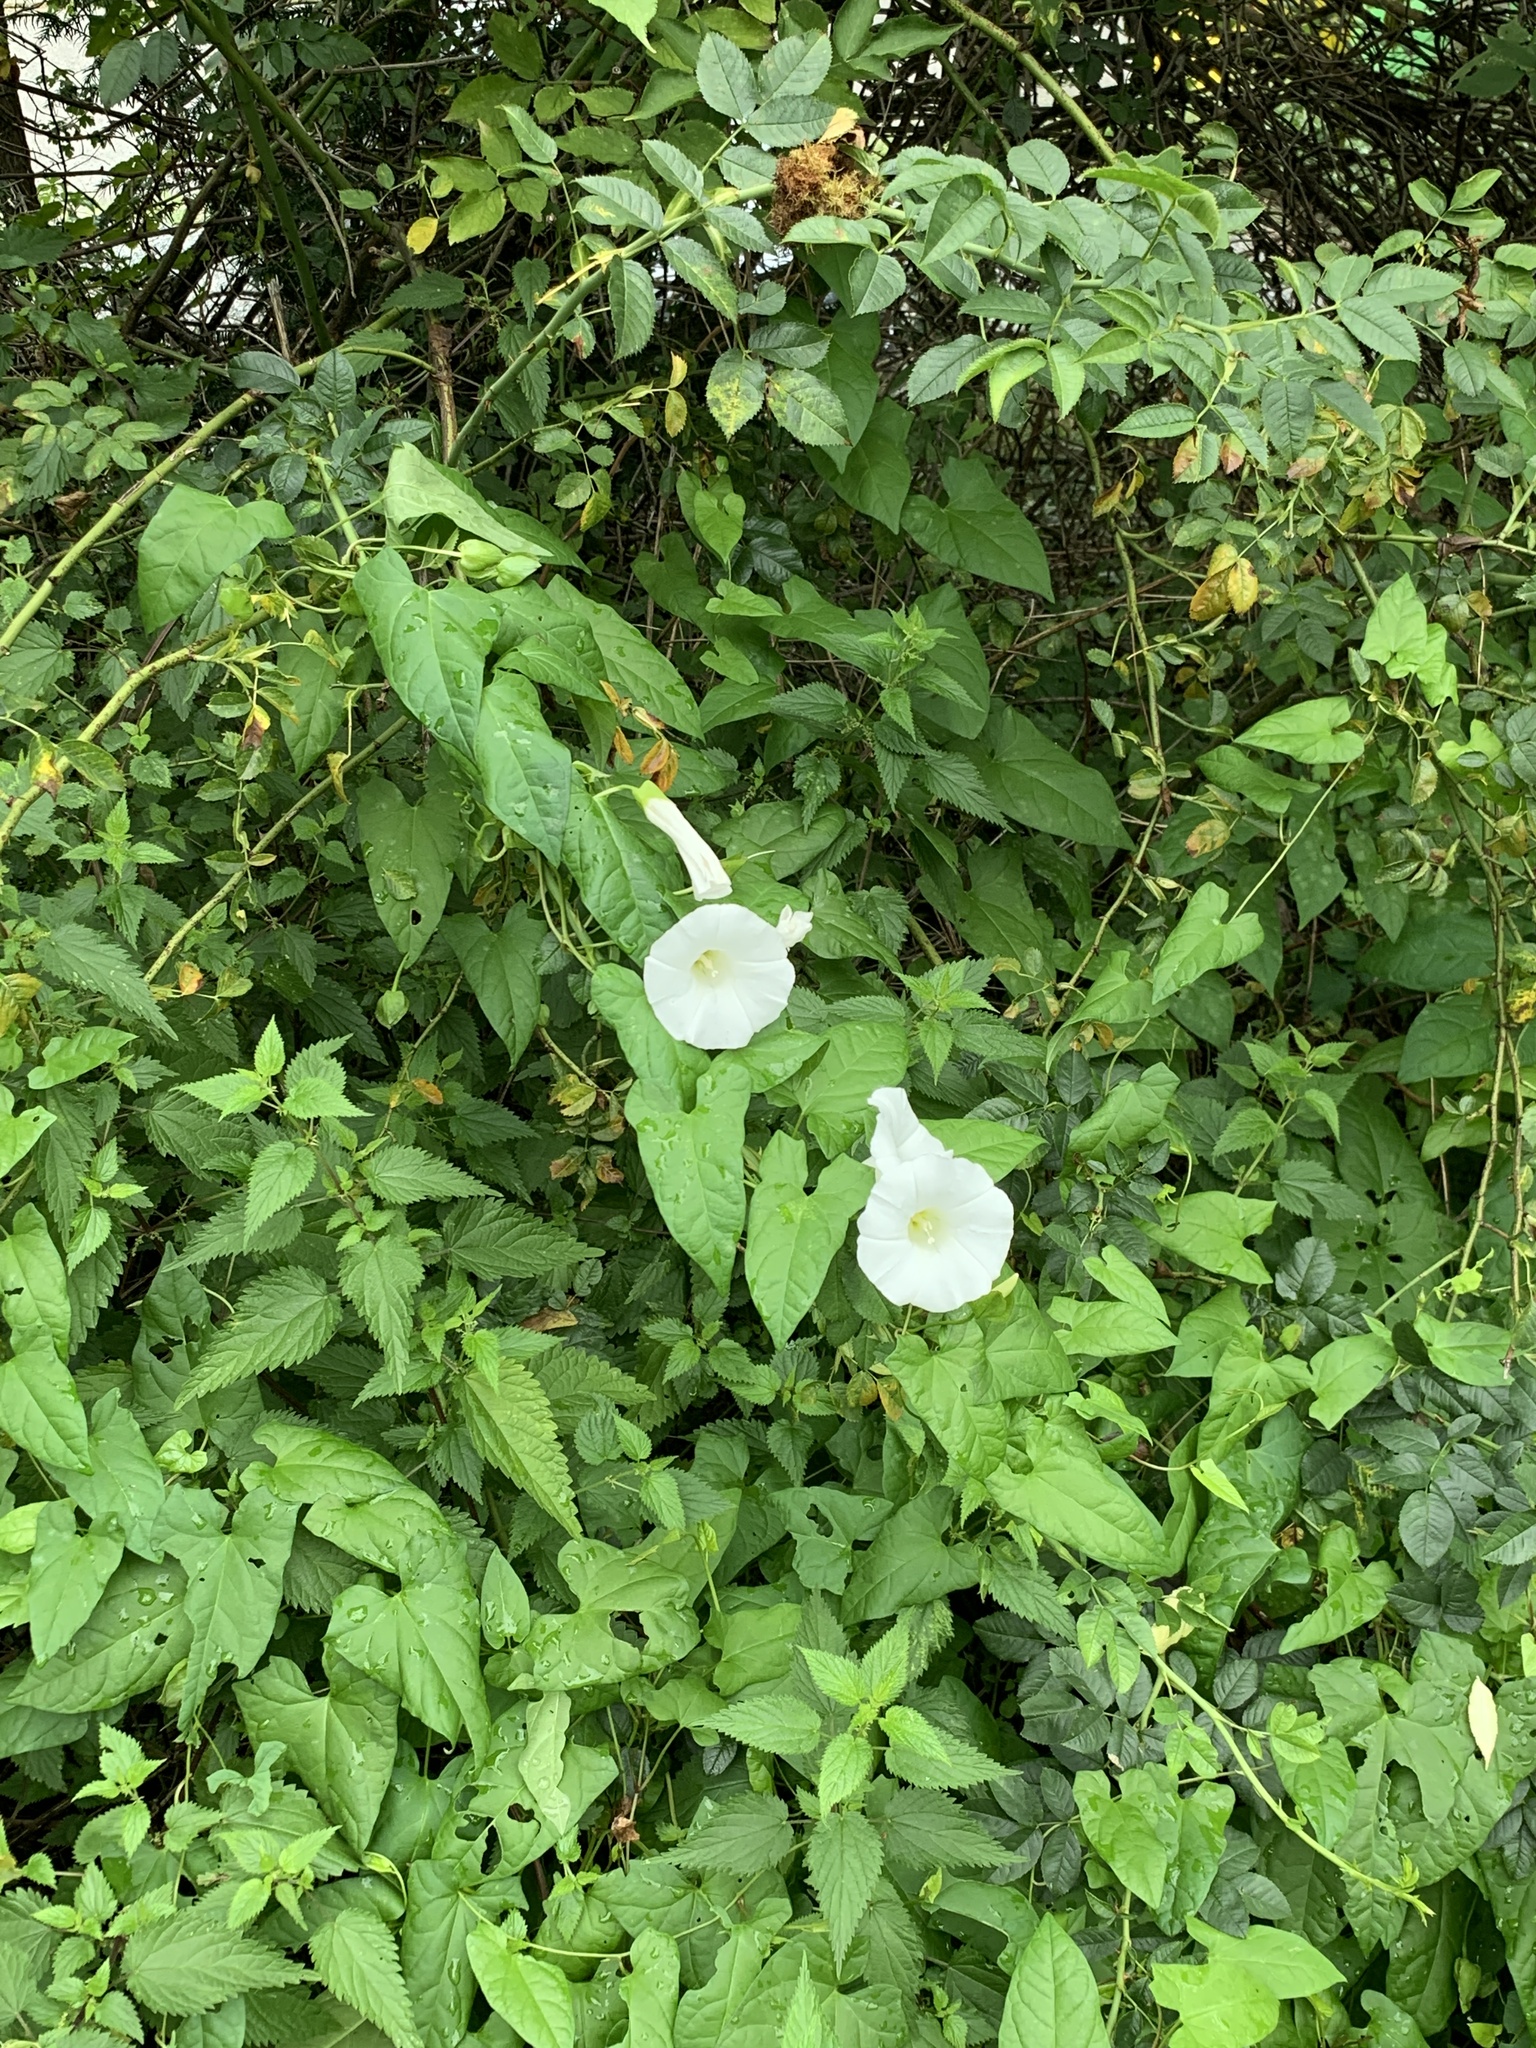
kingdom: Plantae
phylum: Tracheophyta
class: Magnoliopsida
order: Solanales
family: Convolvulaceae
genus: Calystegia
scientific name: Calystegia sepium
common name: Hedge bindweed
